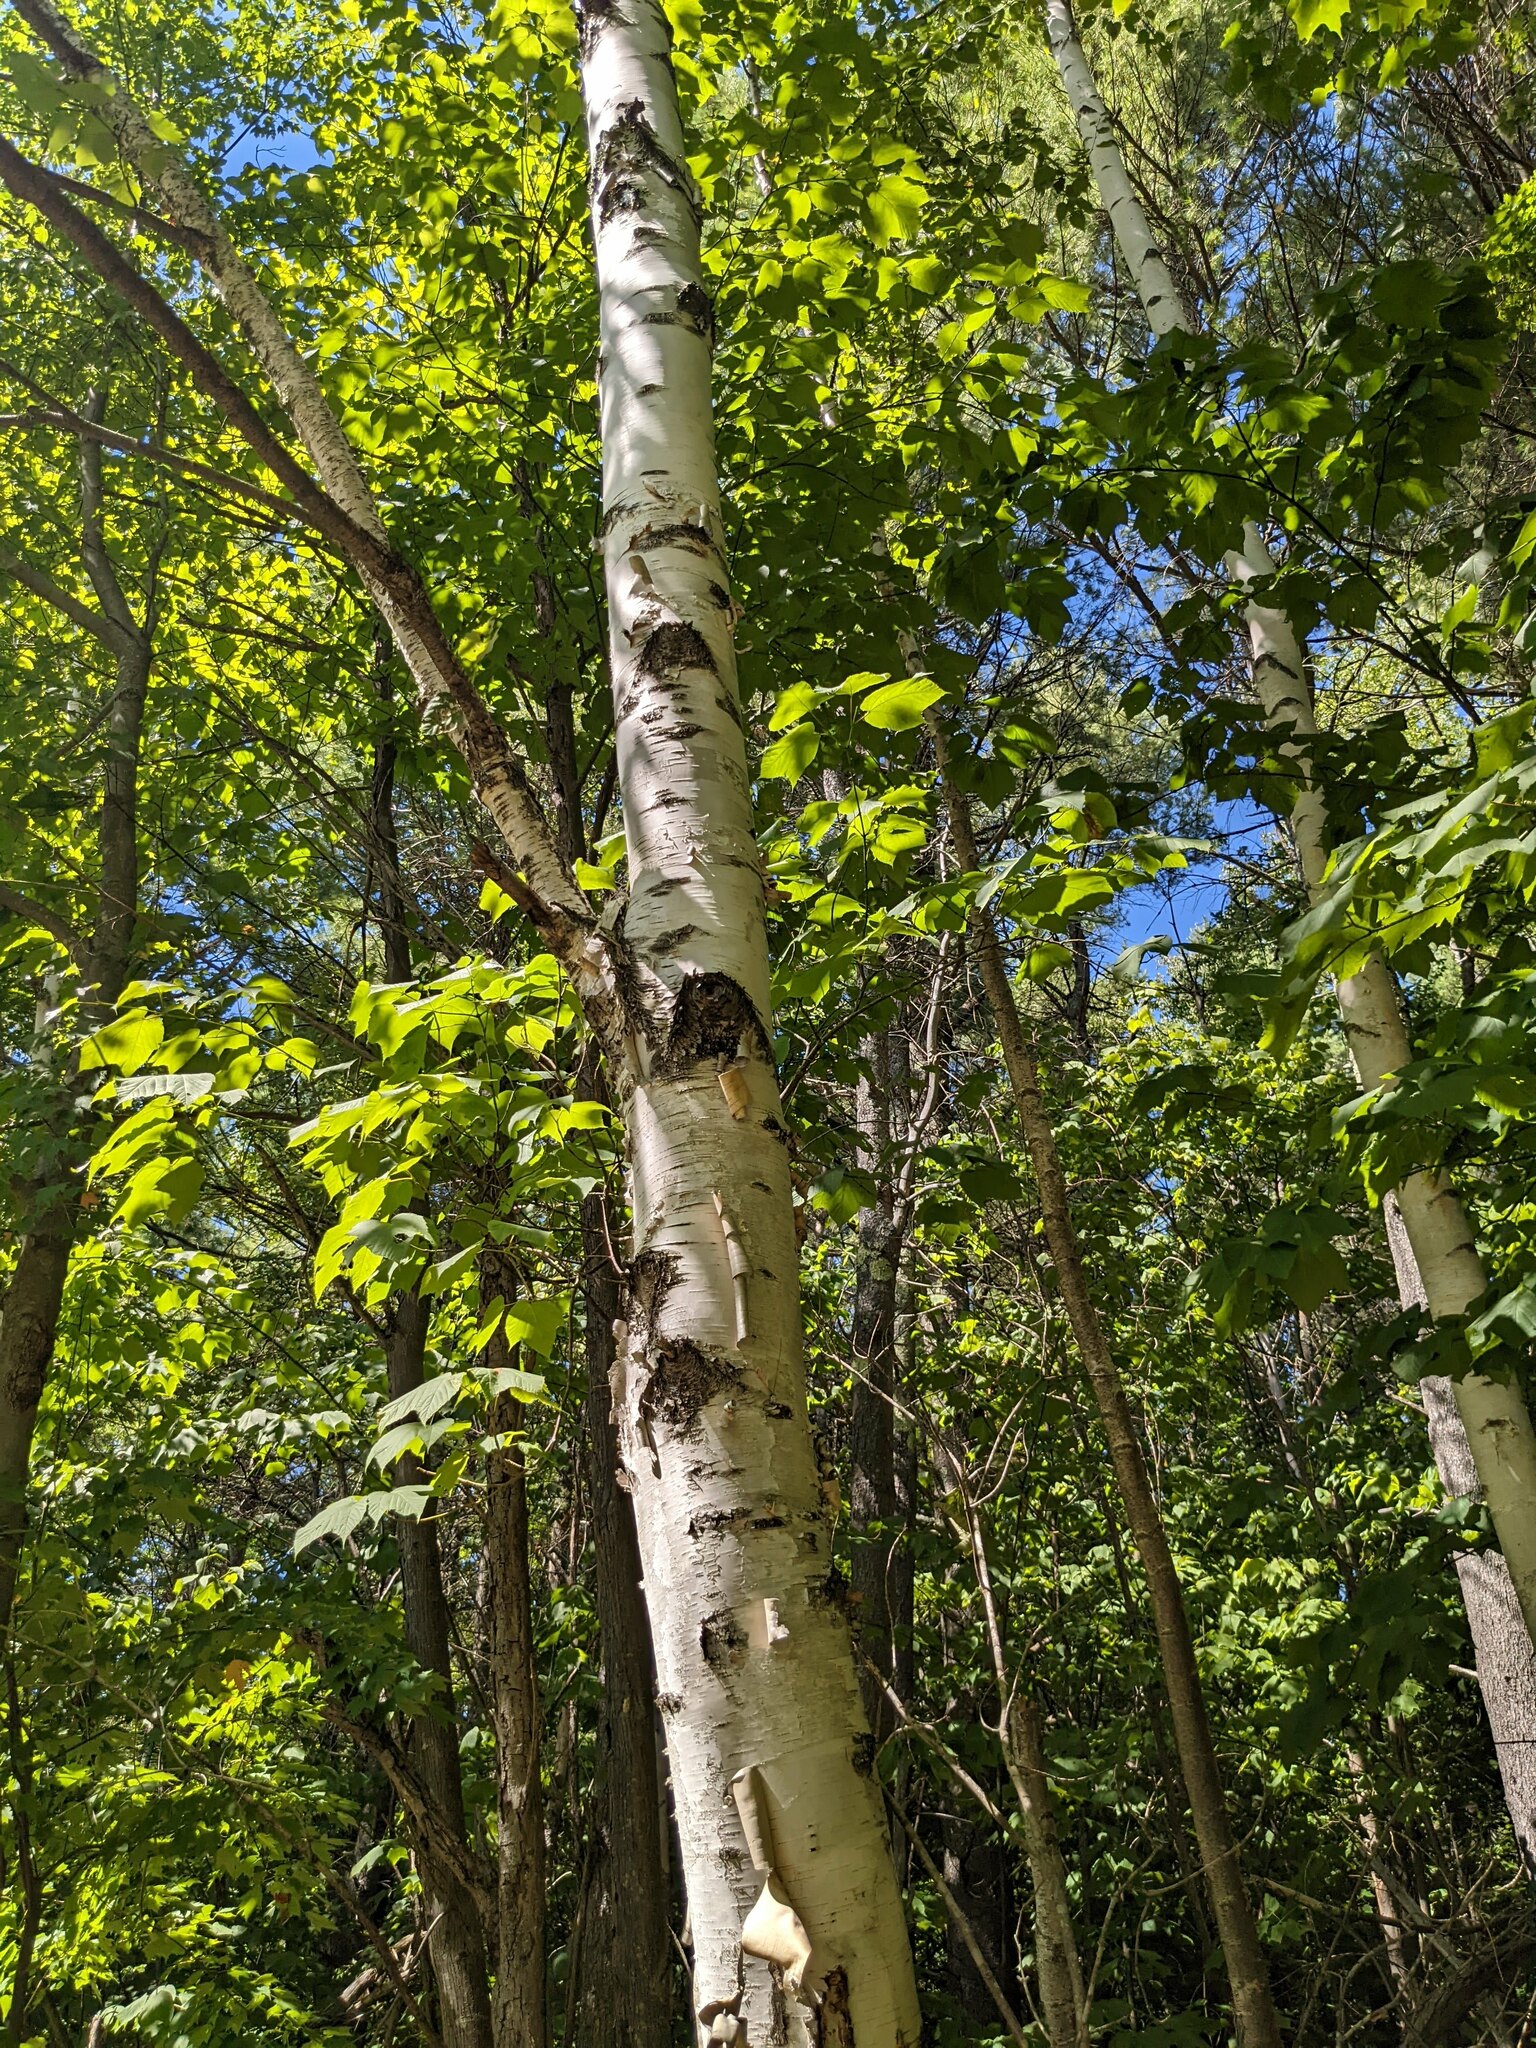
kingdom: Plantae
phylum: Tracheophyta
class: Magnoliopsida
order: Fagales
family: Betulaceae
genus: Betula
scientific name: Betula papyrifera
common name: Paper birch
